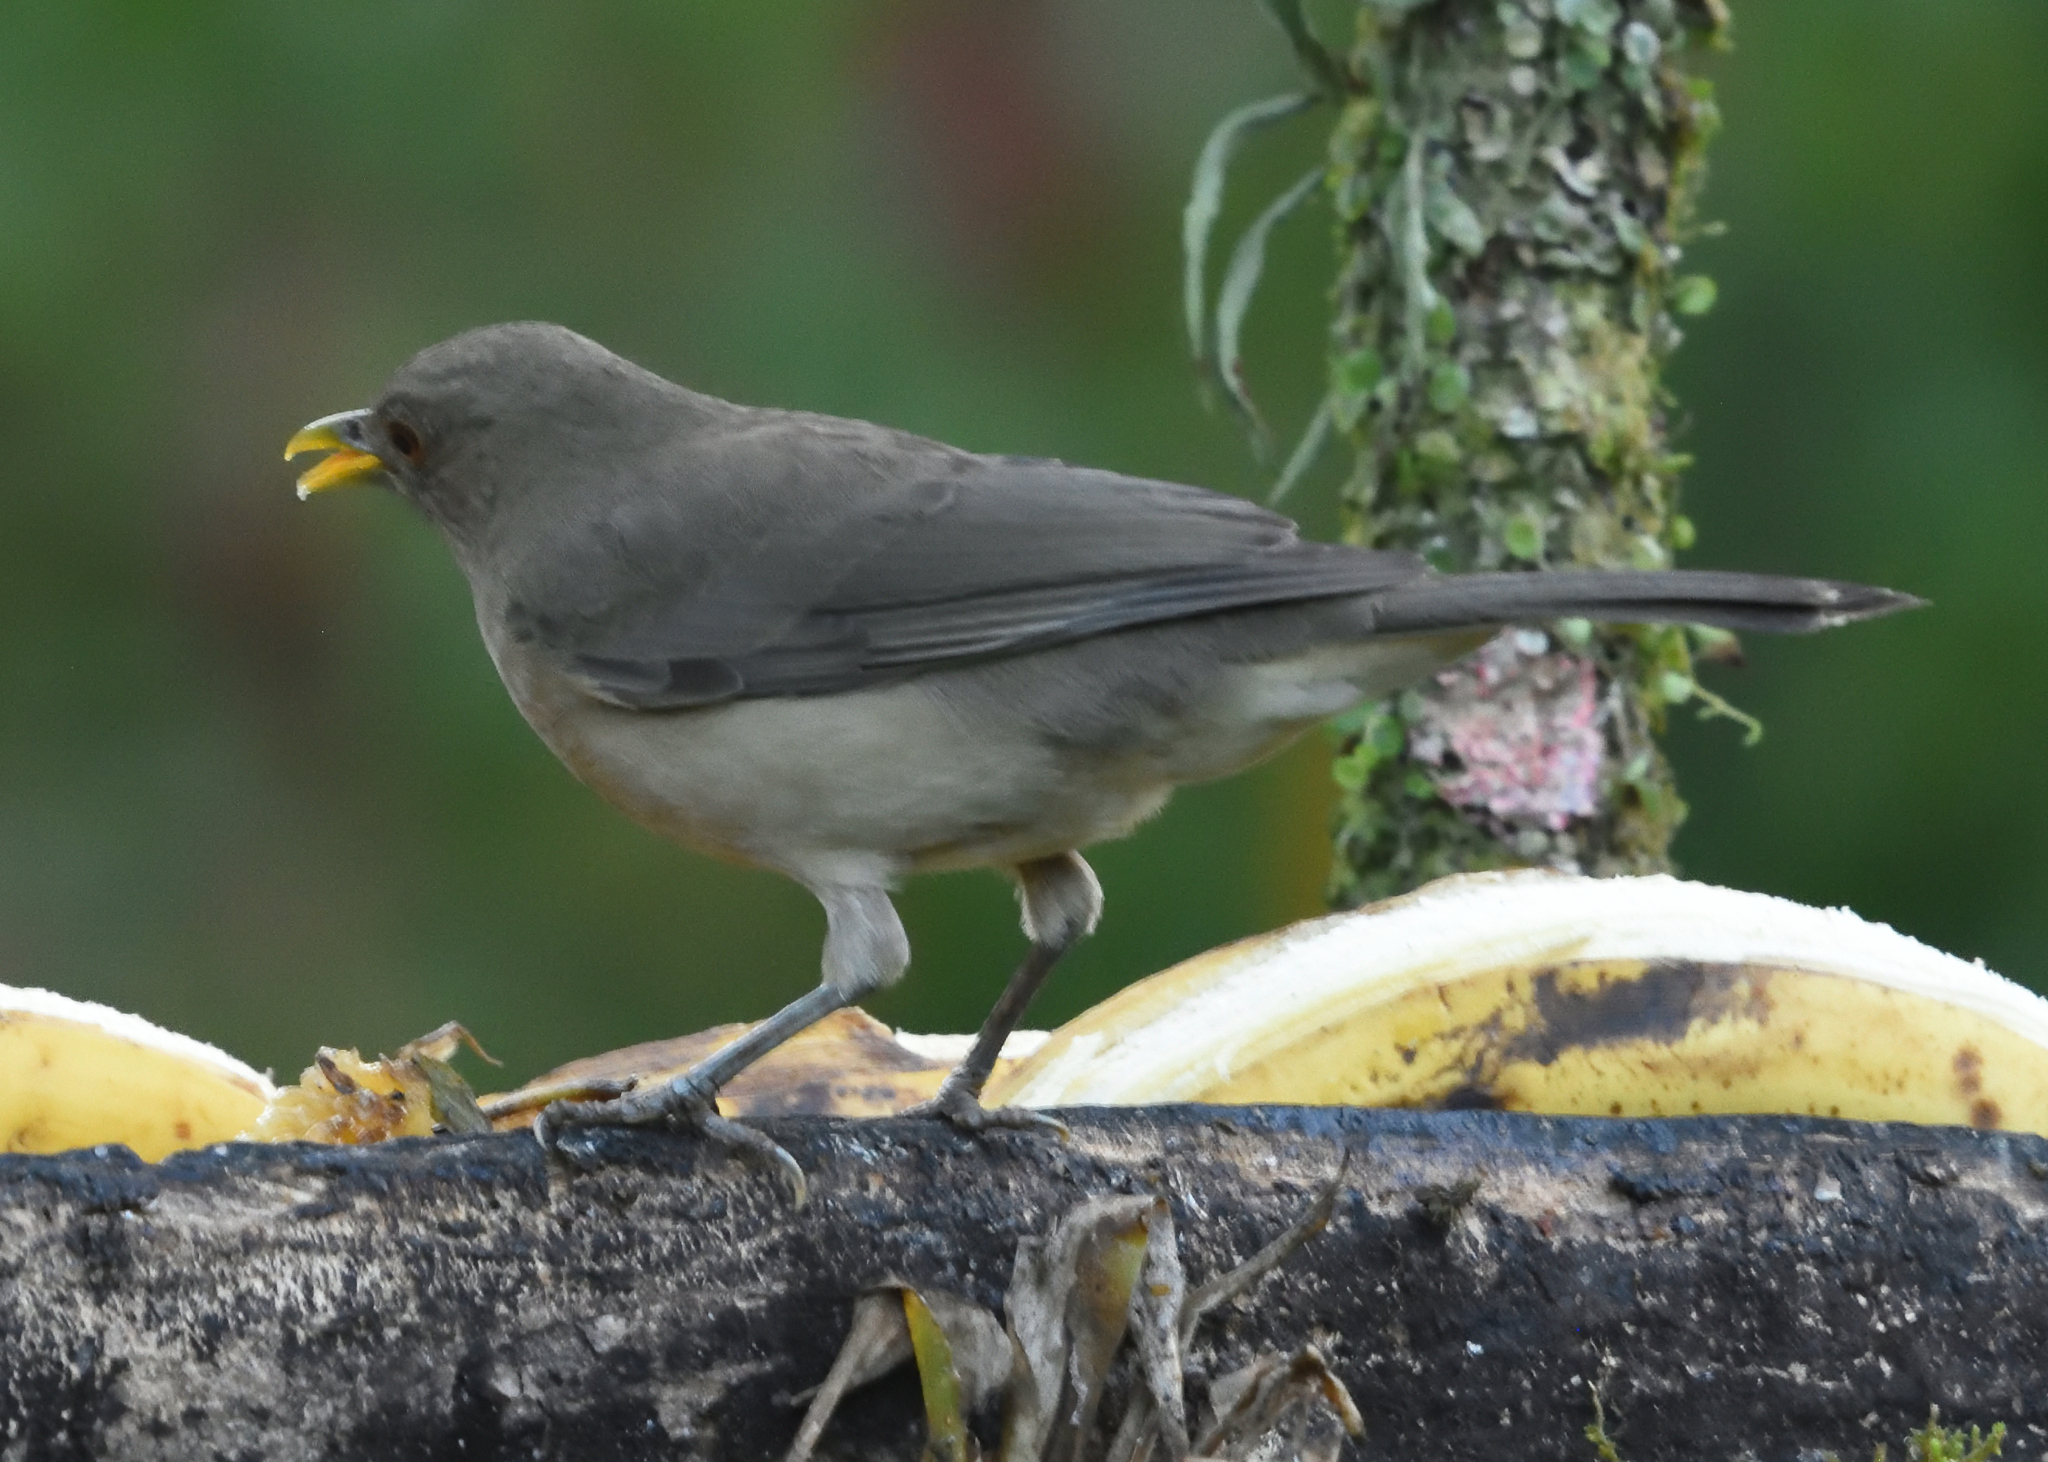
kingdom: Animalia
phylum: Chordata
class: Aves
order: Passeriformes
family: Turdidae
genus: Turdus
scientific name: Turdus grayi
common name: Clay-colored thrush
